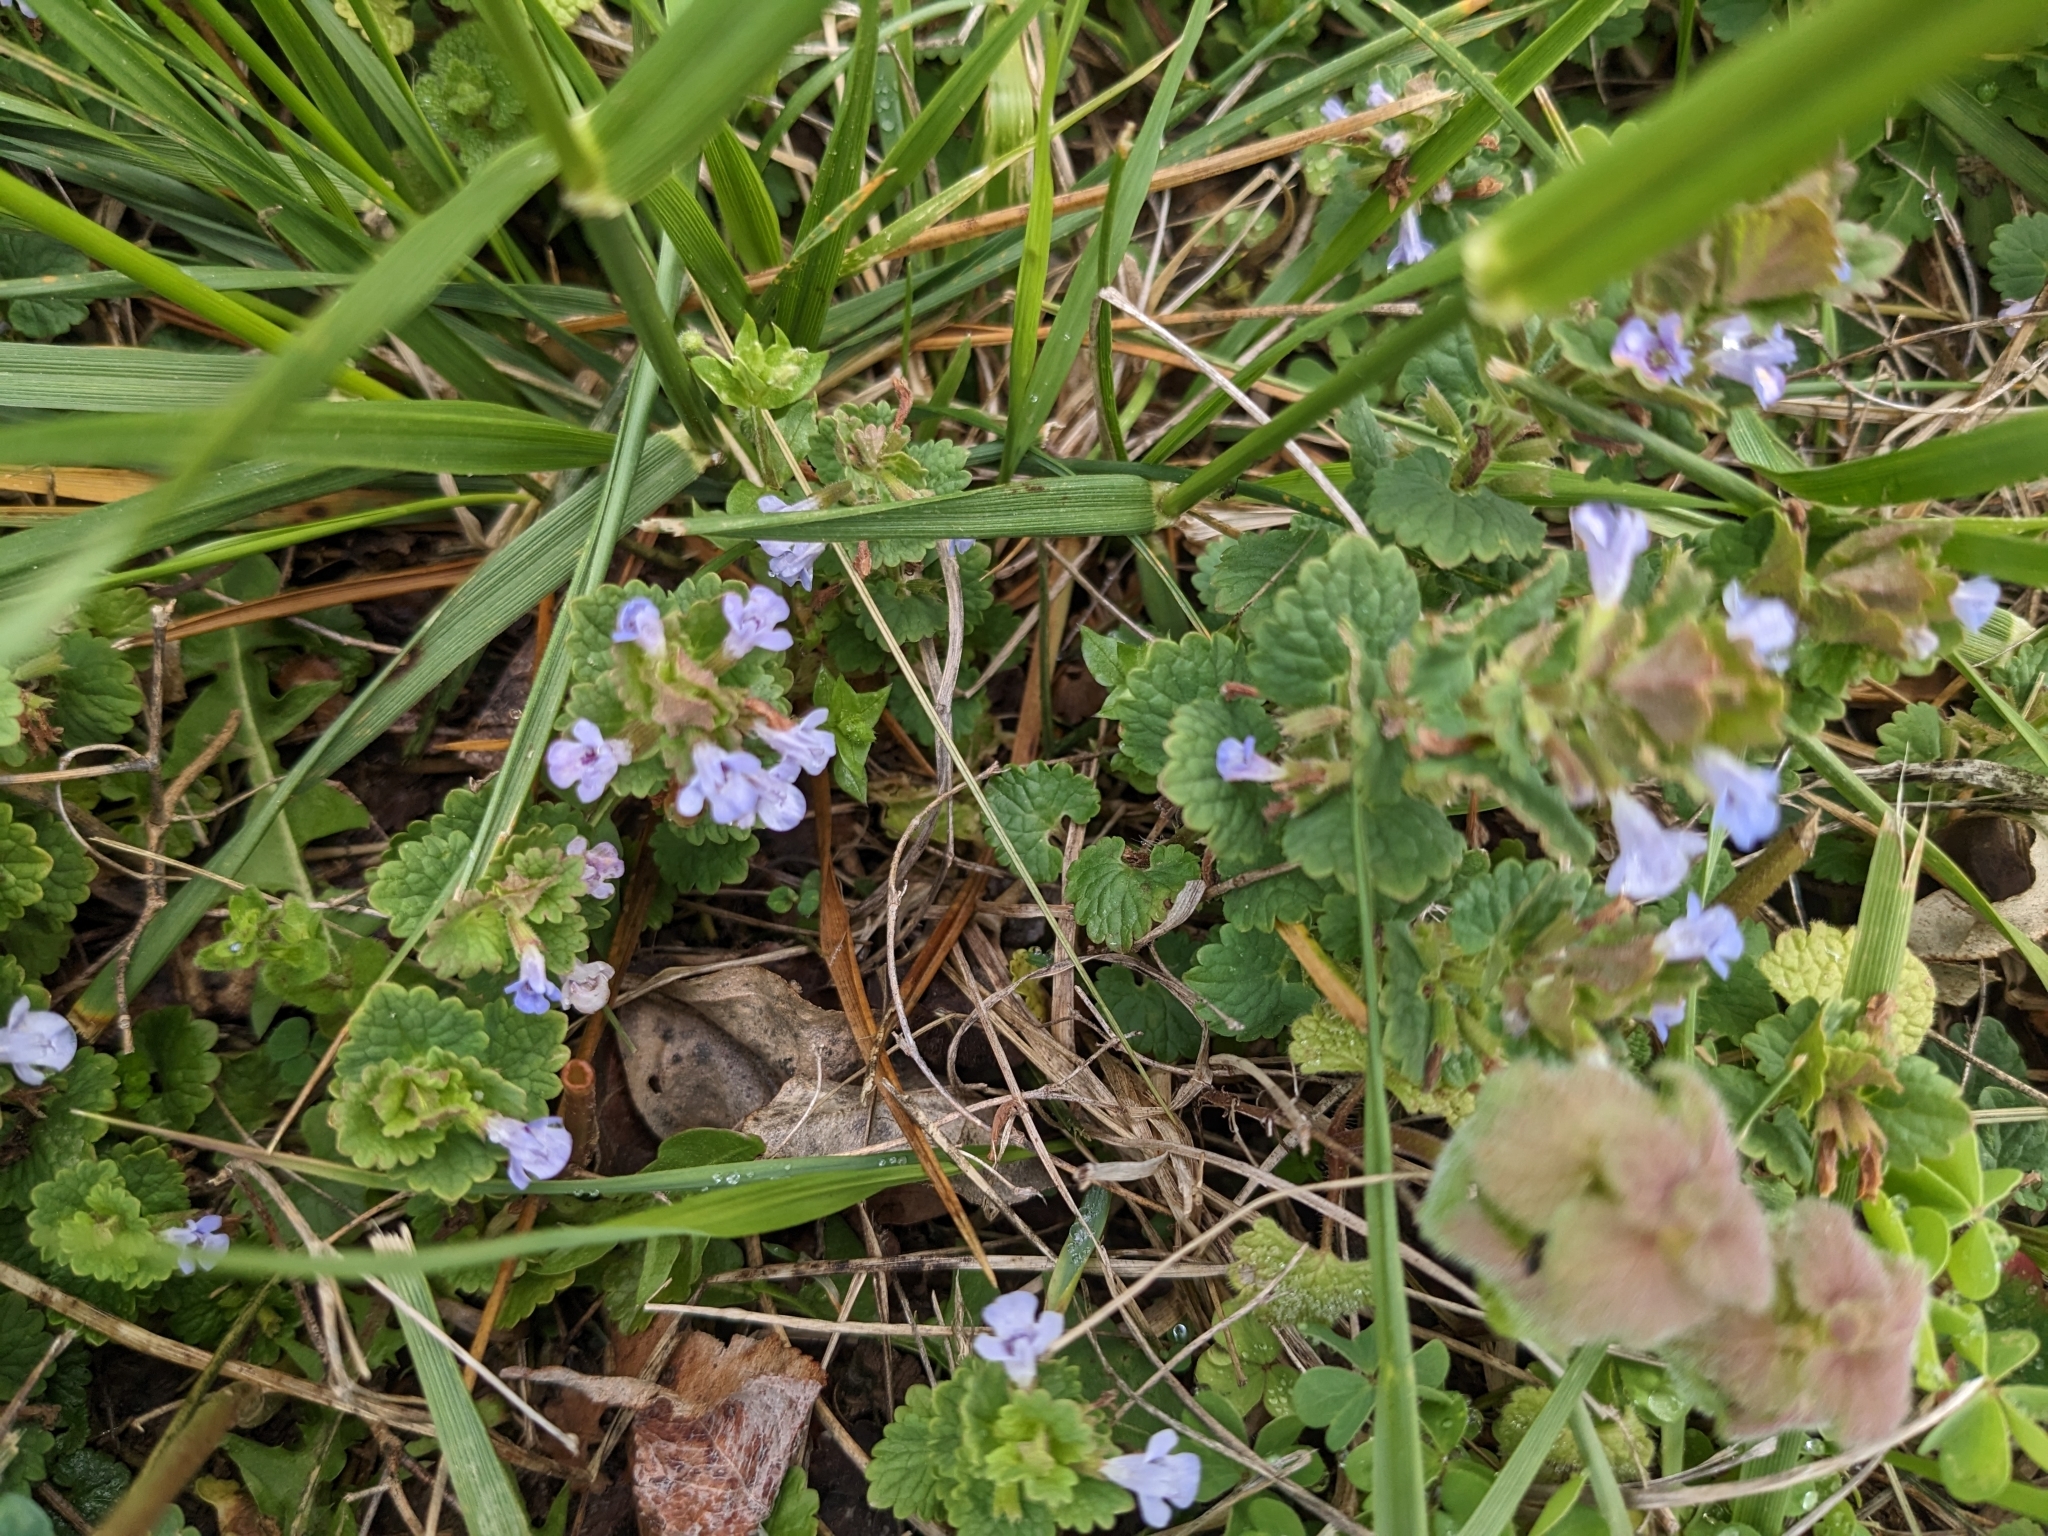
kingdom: Plantae
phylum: Tracheophyta
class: Magnoliopsida
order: Lamiales
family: Lamiaceae
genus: Glechoma
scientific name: Glechoma hederacea
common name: Ground ivy
